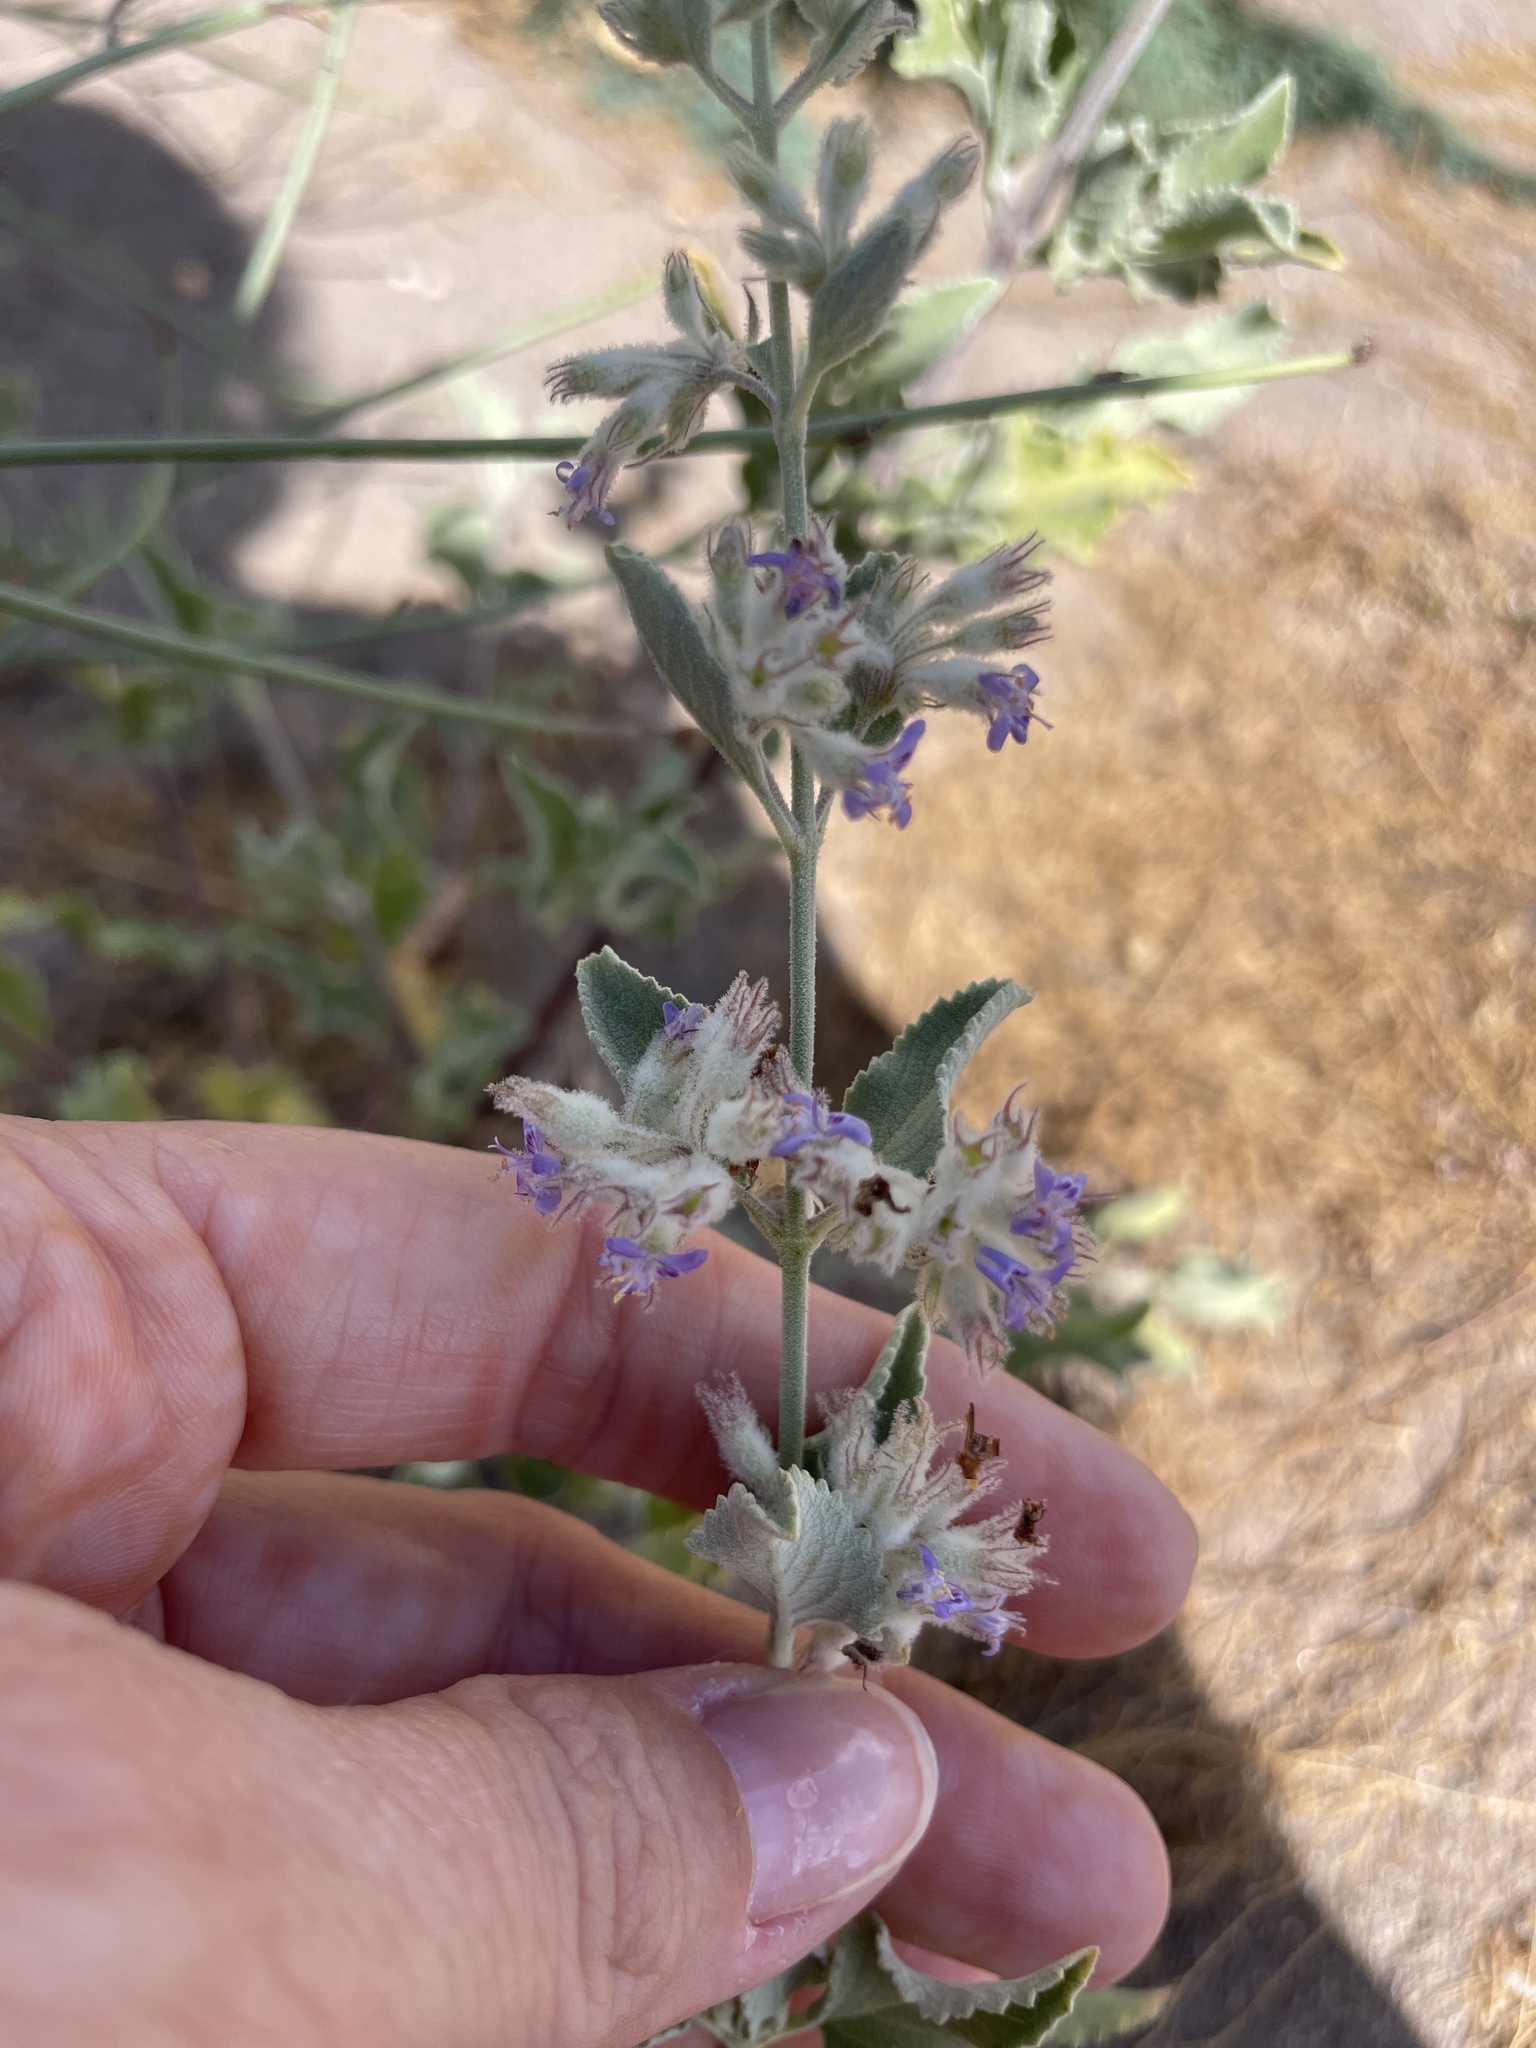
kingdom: Plantae
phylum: Tracheophyta
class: Magnoliopsida
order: Lamiales
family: Lamiaceae
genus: Condea
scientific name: Condea emoryi
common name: Chia
